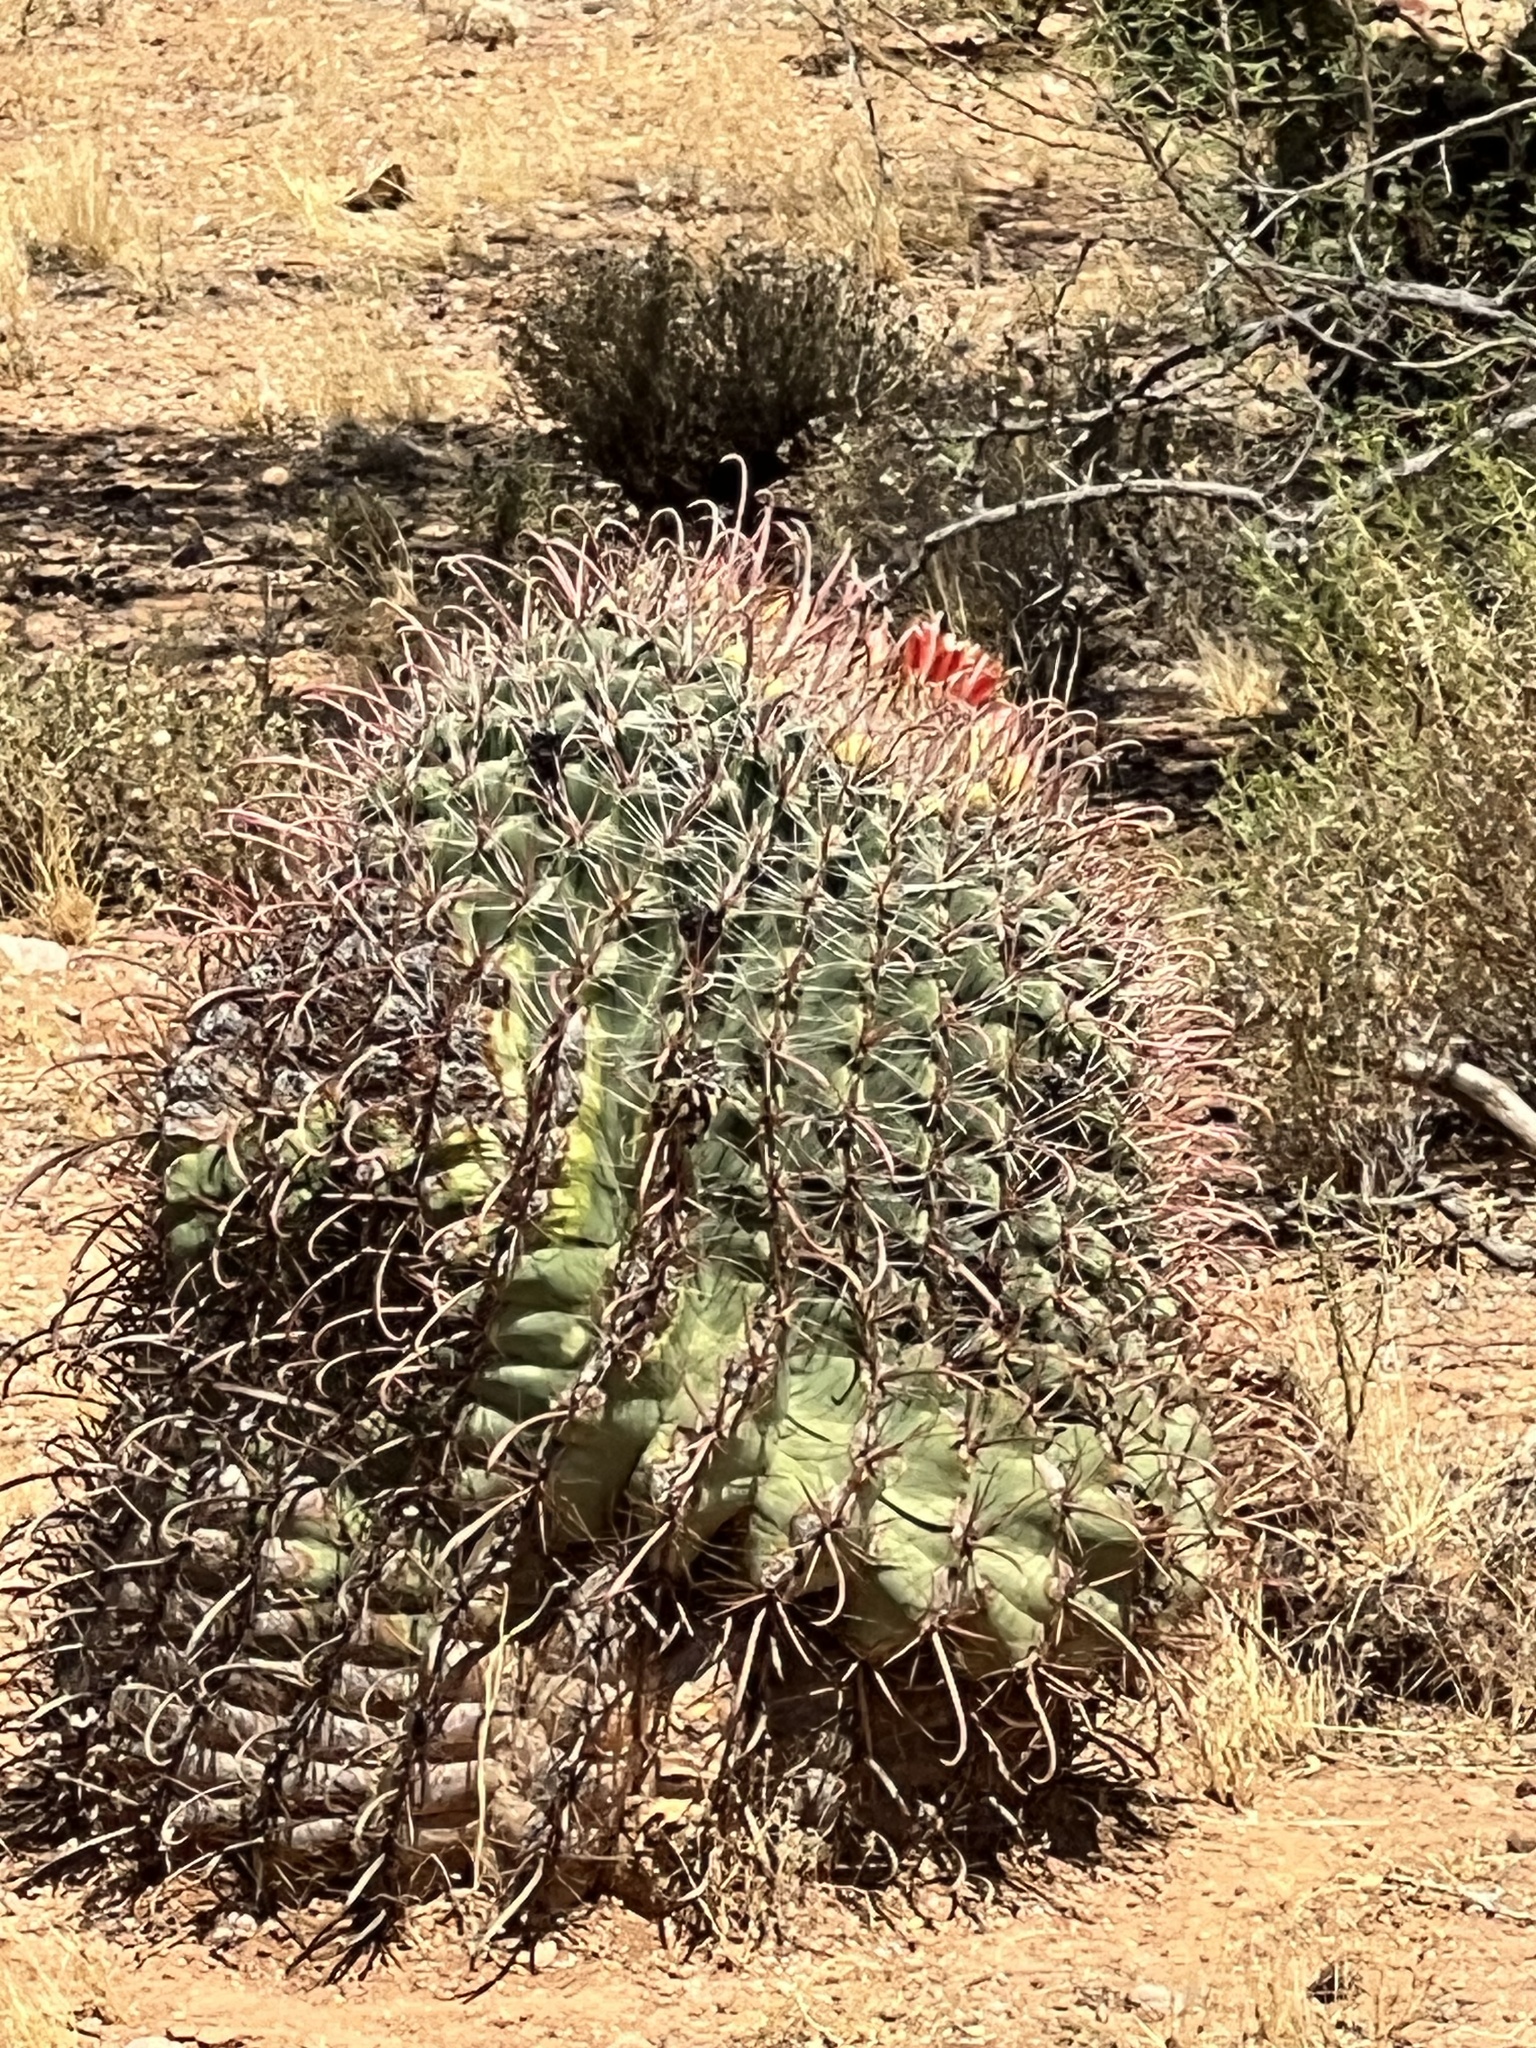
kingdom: Plantae
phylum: Tracheophyta
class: Magnoliopsida
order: Caryophyllales
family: Cactaceae
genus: Ferocactus
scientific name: Ferocactus wislizeni
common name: Candy barrel cactus
